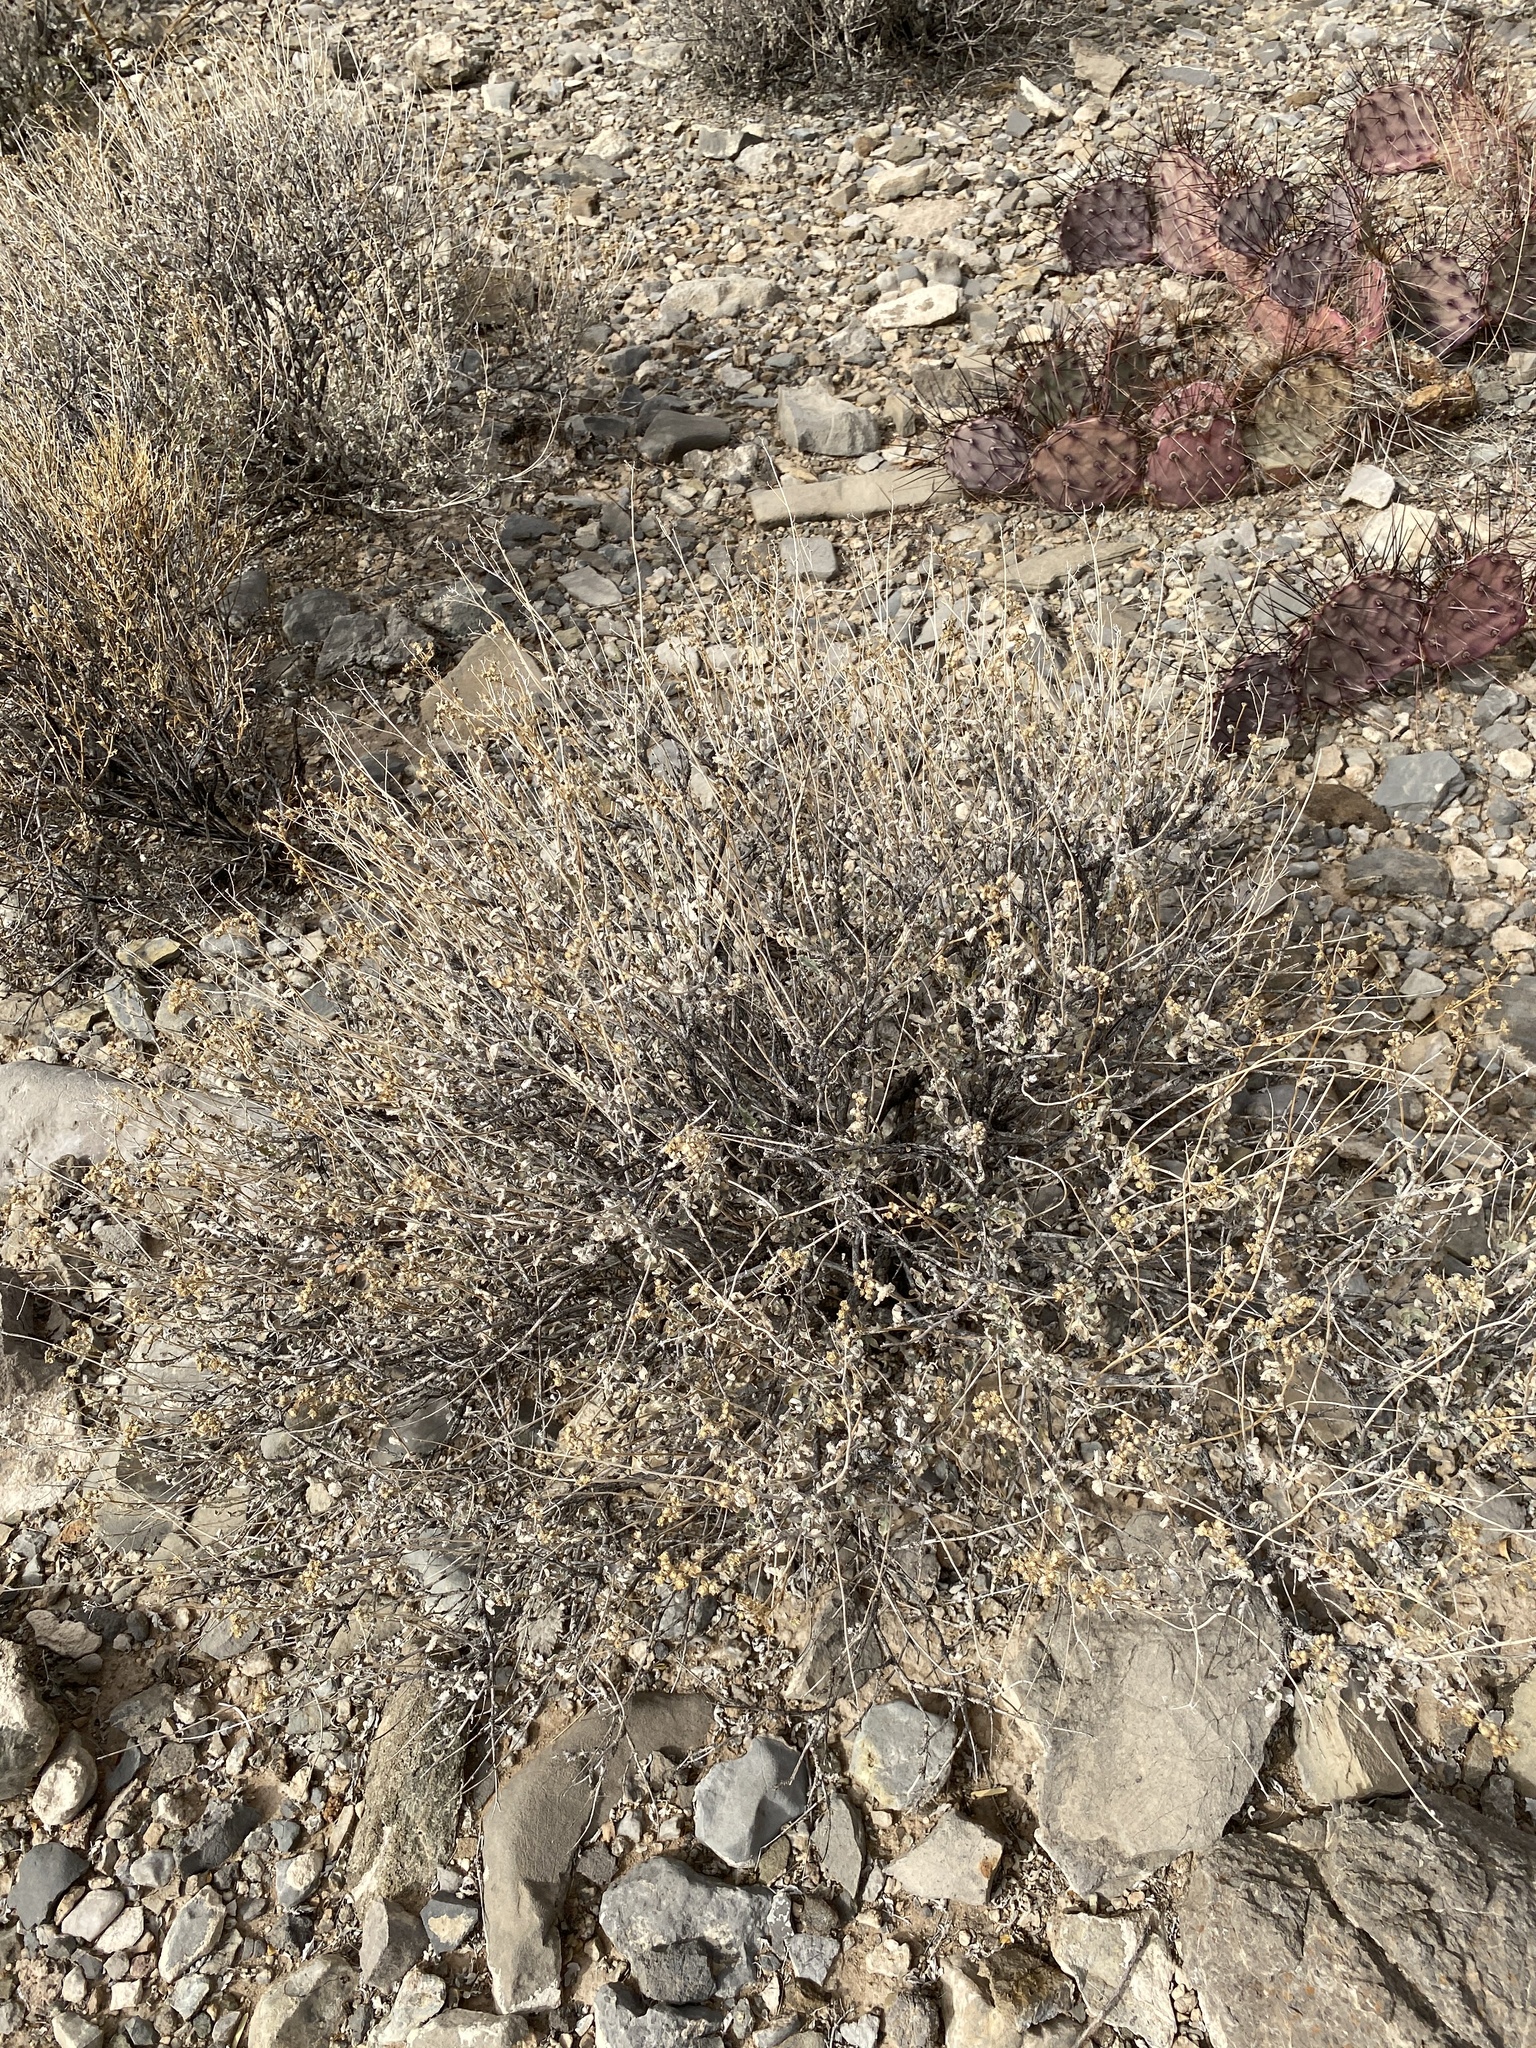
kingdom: Plantae
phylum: Tracheophyta
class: Magnoliopsida
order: Asterales
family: Asteraceae
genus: Parthenium
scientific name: Parthenium incanum
